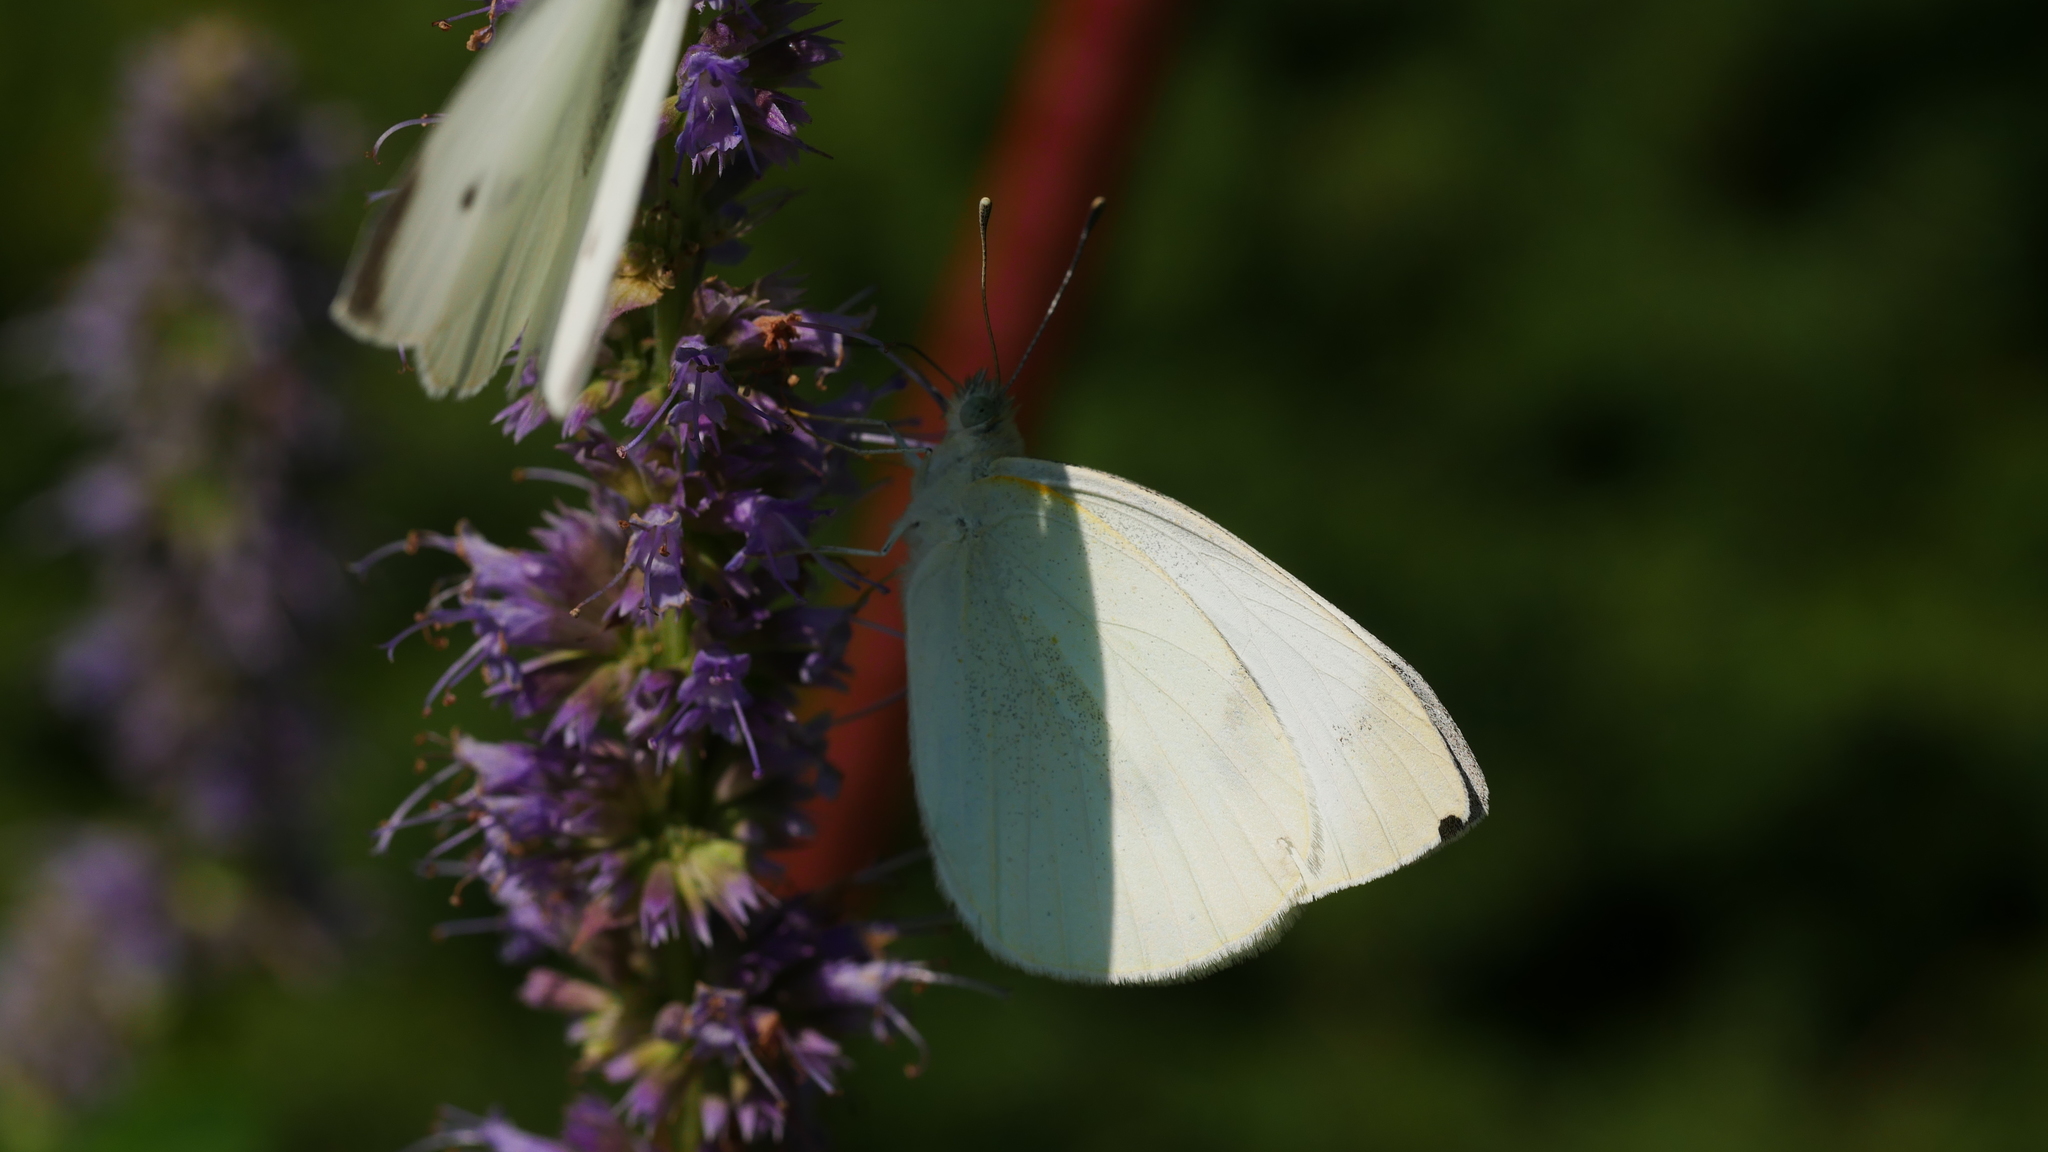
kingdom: Animalia
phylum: Arthropoda
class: Insecta
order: Lepidoptera
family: Pieridae
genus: Pieris
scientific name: Pieris rapae
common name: Small white
